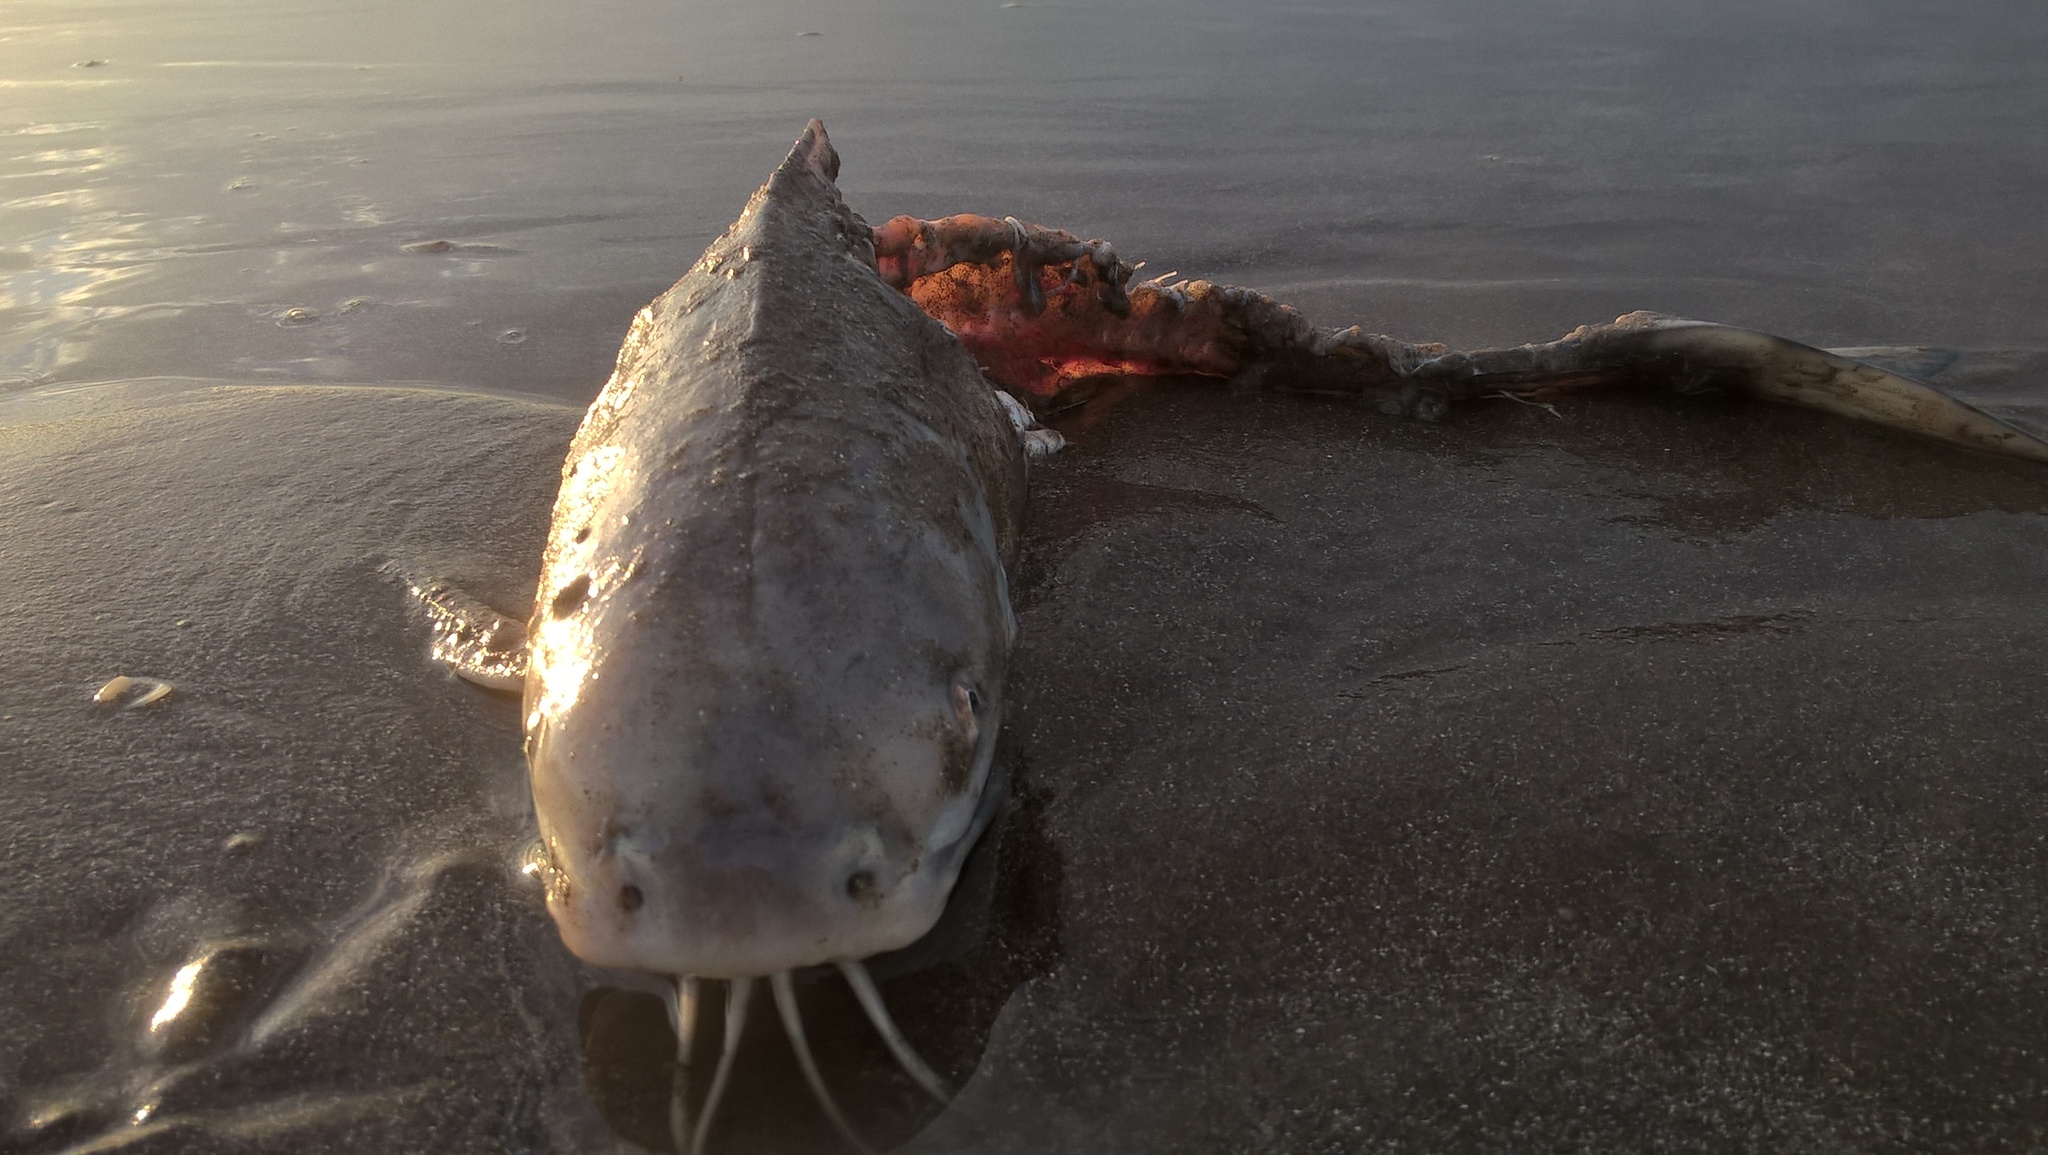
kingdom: Animalia
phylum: Chordata
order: Siluriformes
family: Ariidae
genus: Genidens
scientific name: Genidens barbus
